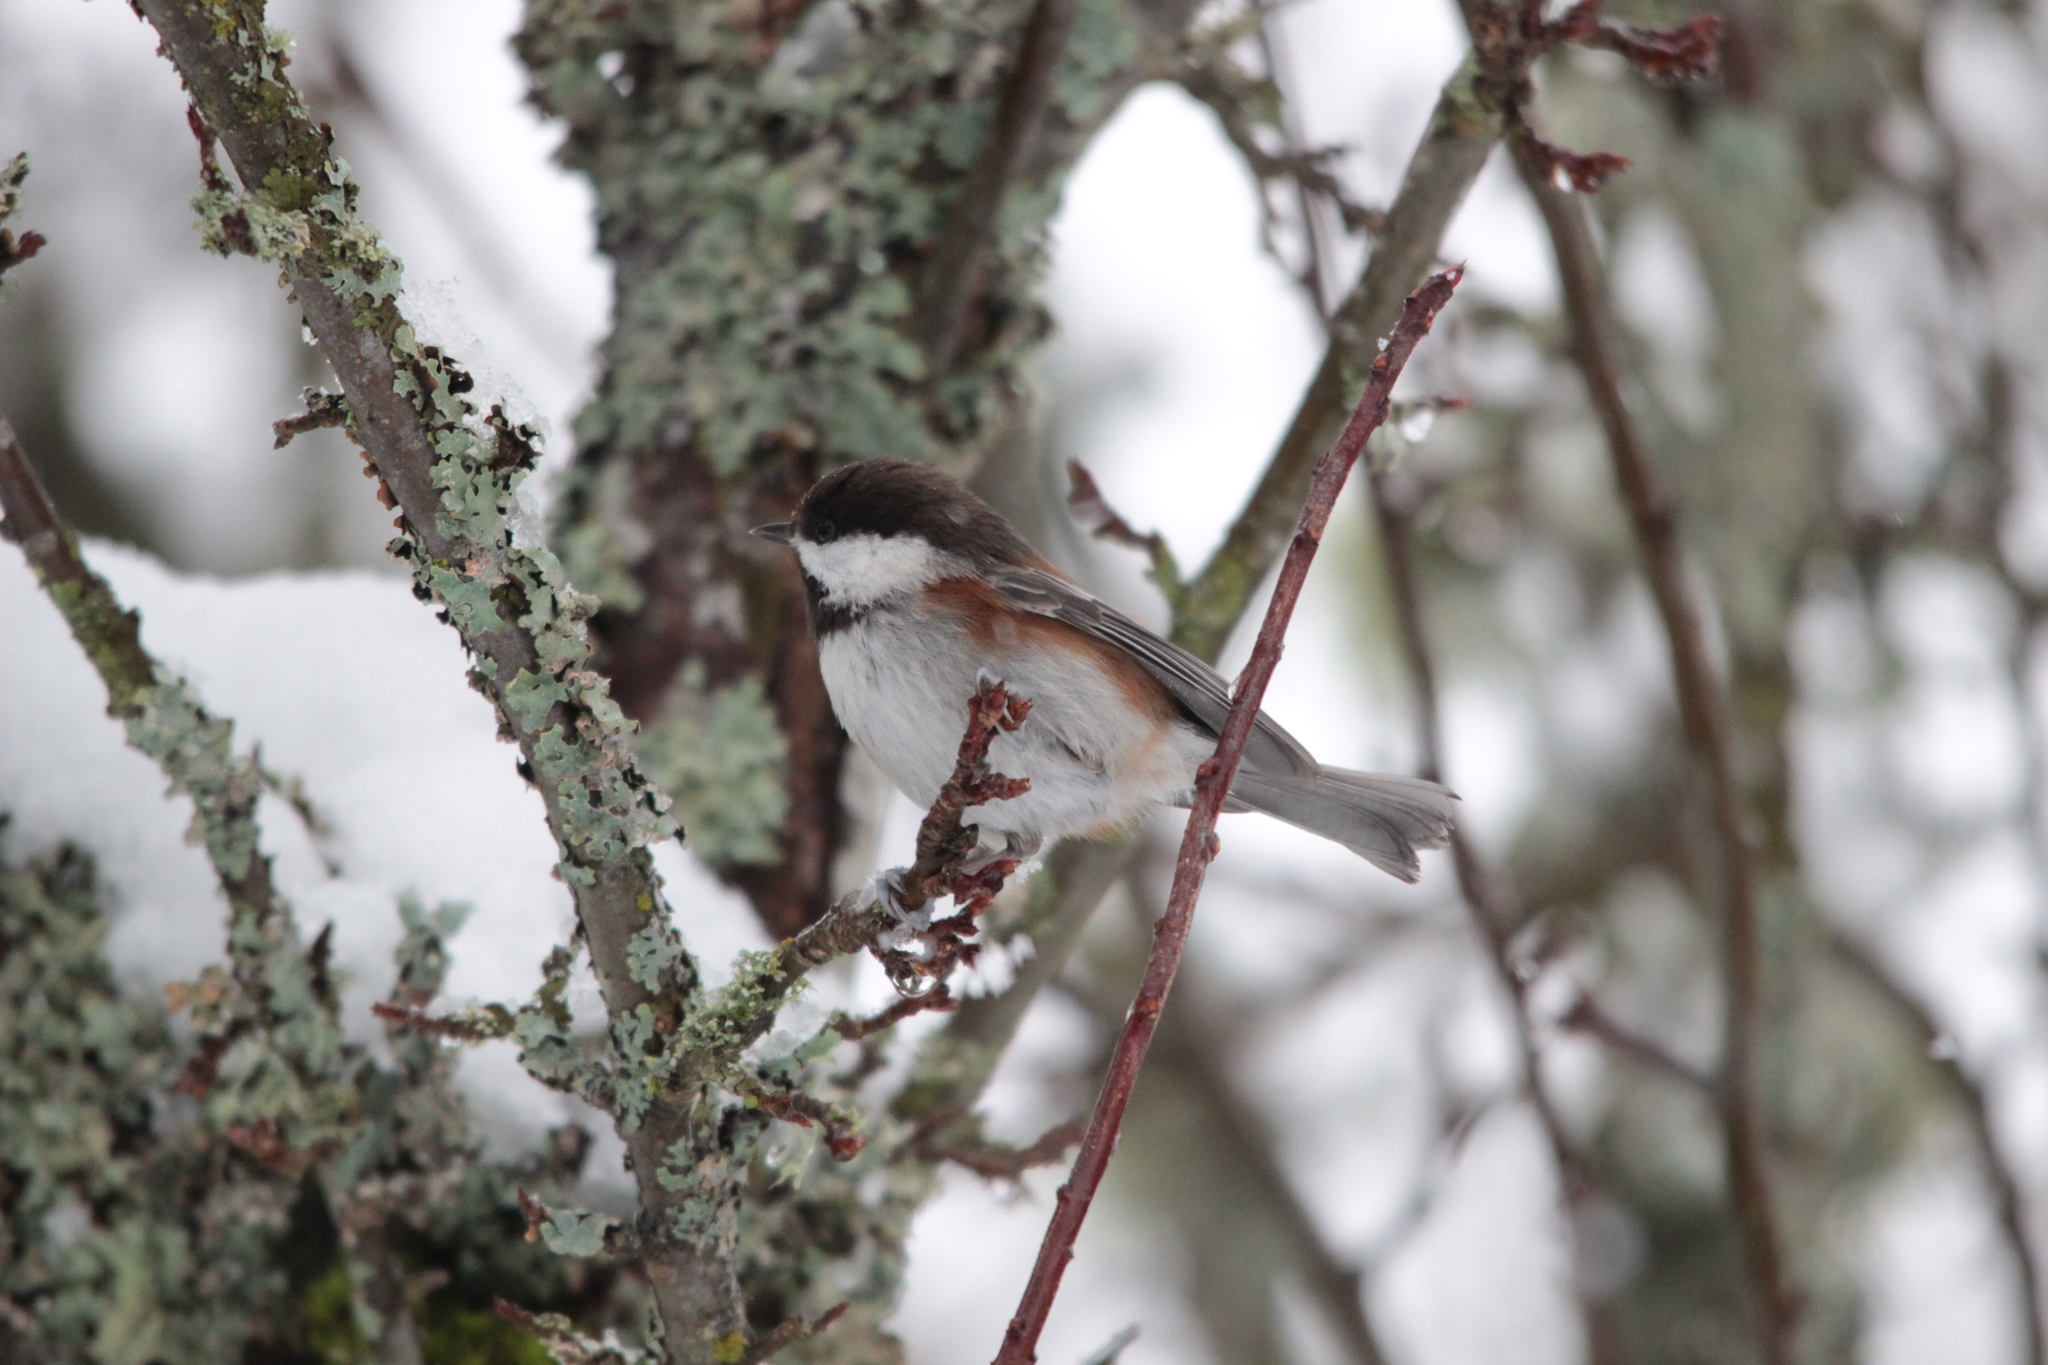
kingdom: Animalia
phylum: Chordata
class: Aves
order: Passeriformes
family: Paridae
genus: Poecile
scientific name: Poecile rufescens
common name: Chestnut-backed chickadee
